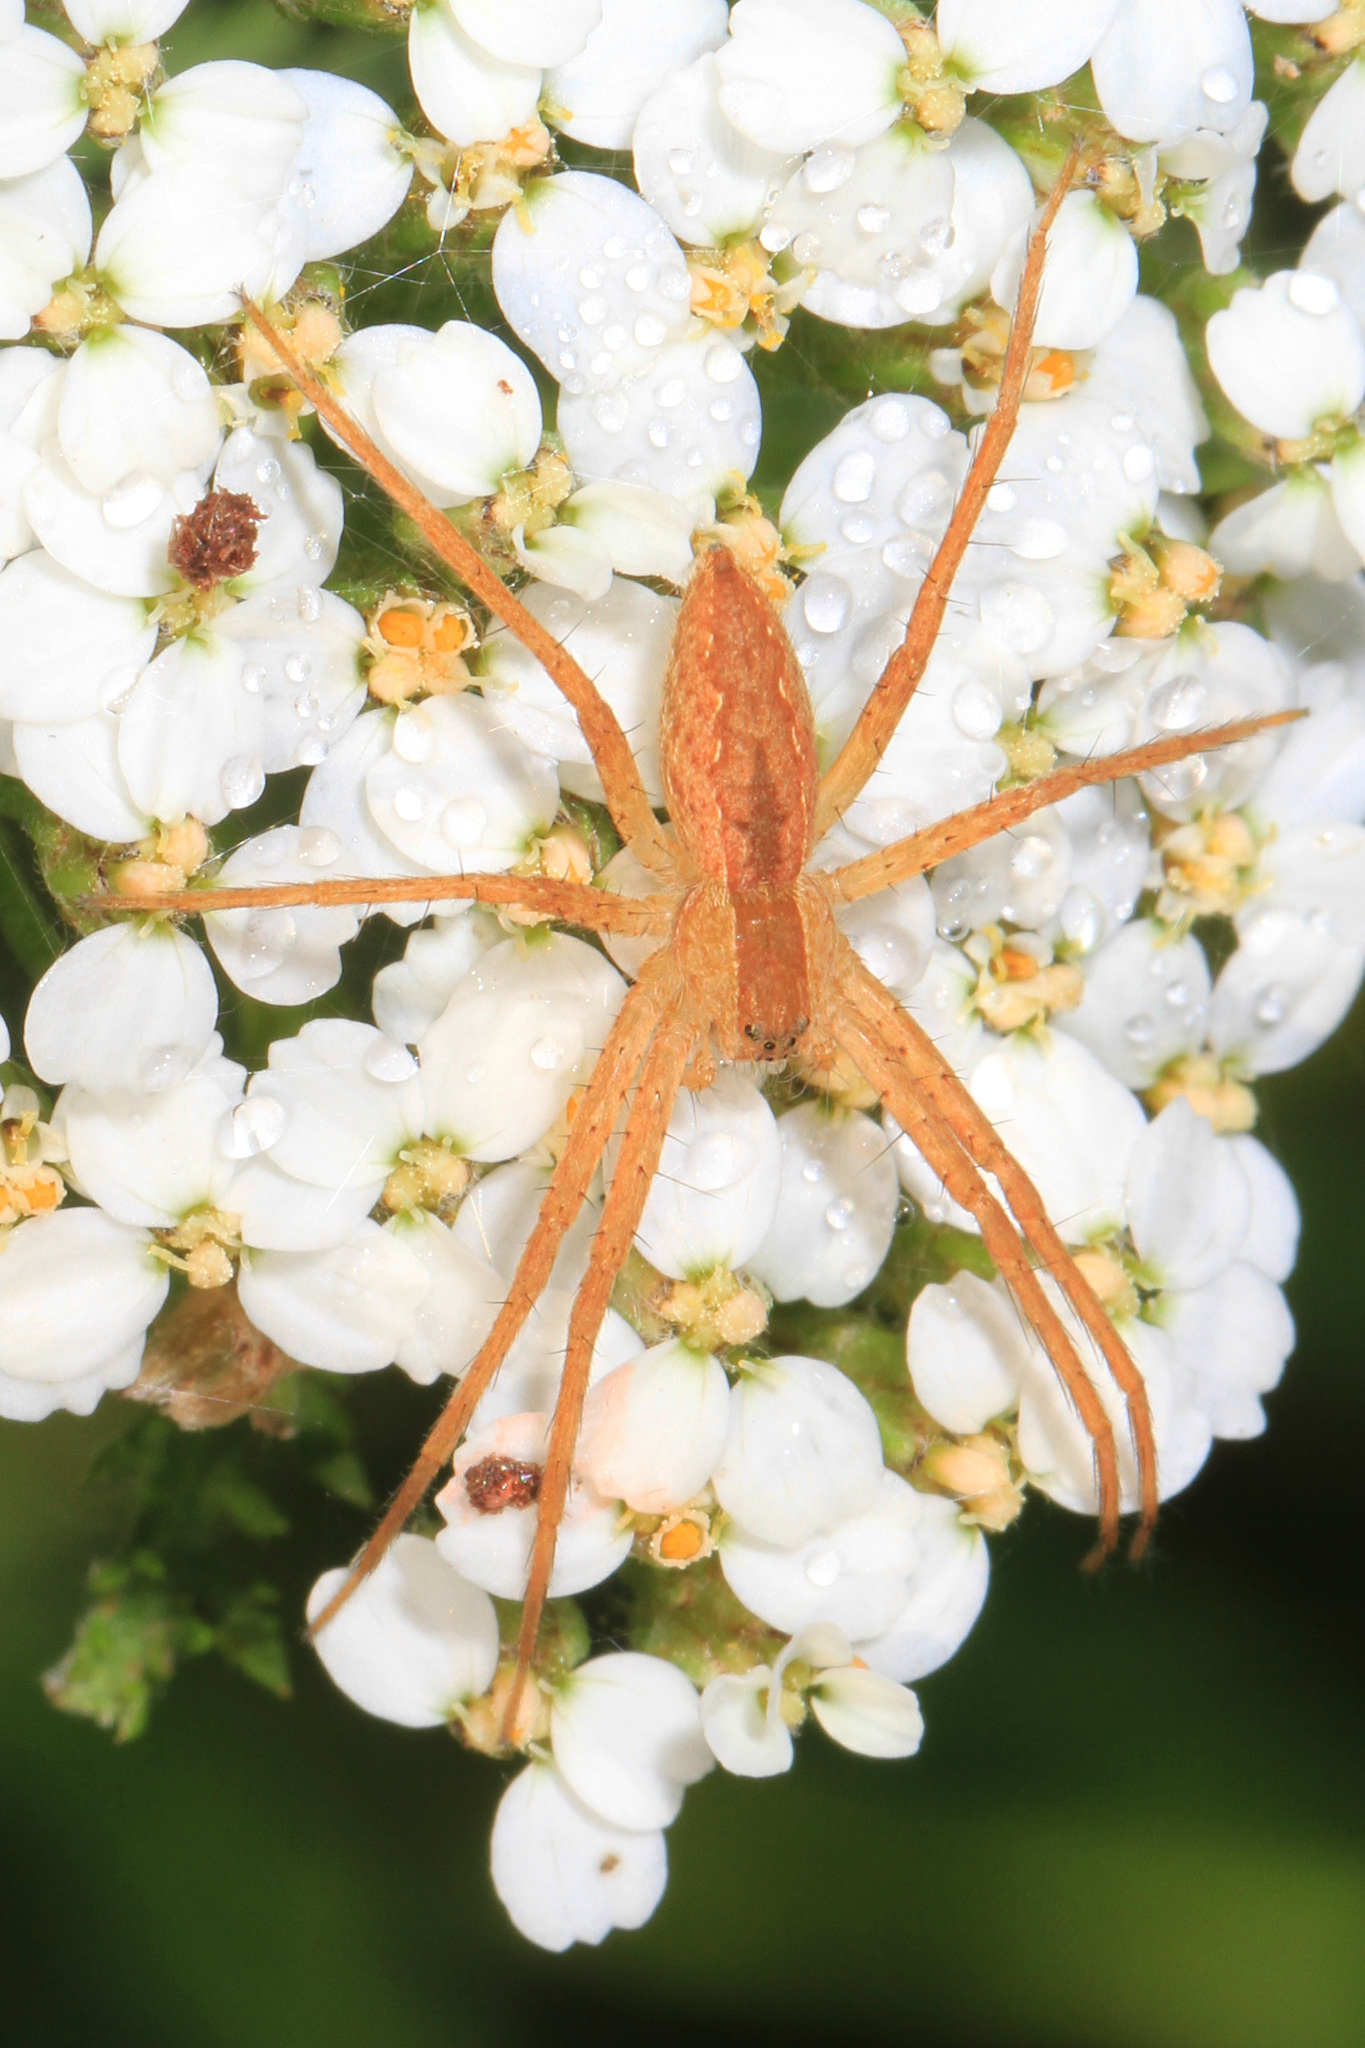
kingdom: Animalia
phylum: Arthropoda
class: Arachnida
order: Araneae
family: Pisauridae
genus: Pisaurina
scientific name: Pisaurina mira
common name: American nursery web spider
